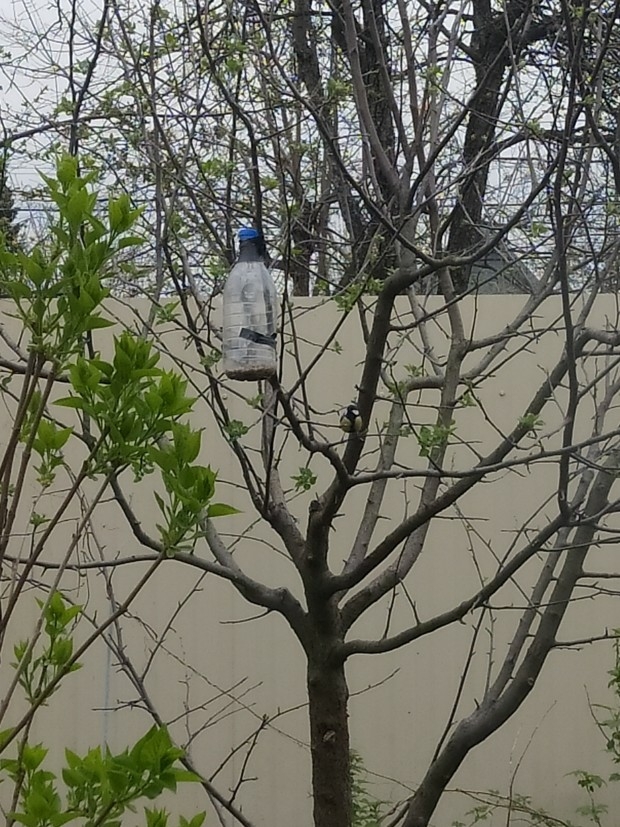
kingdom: Animalia
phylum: Chordata
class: Aves
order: Passeriformes
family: Paridae
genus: Parus
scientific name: Parus major
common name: Great tit
